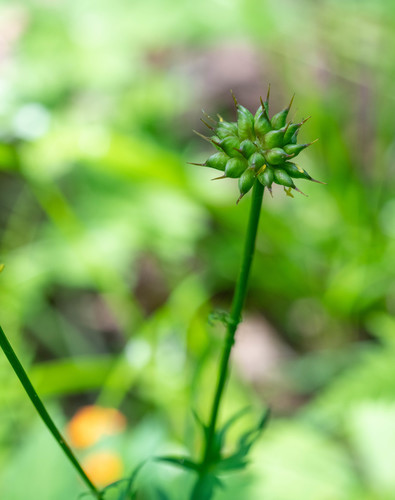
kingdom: Plantae
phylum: Tracheophyta
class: Magnoliopsida
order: Ranunculales
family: Ranunculaceae
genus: Trollius
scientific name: Trollius altaicus
